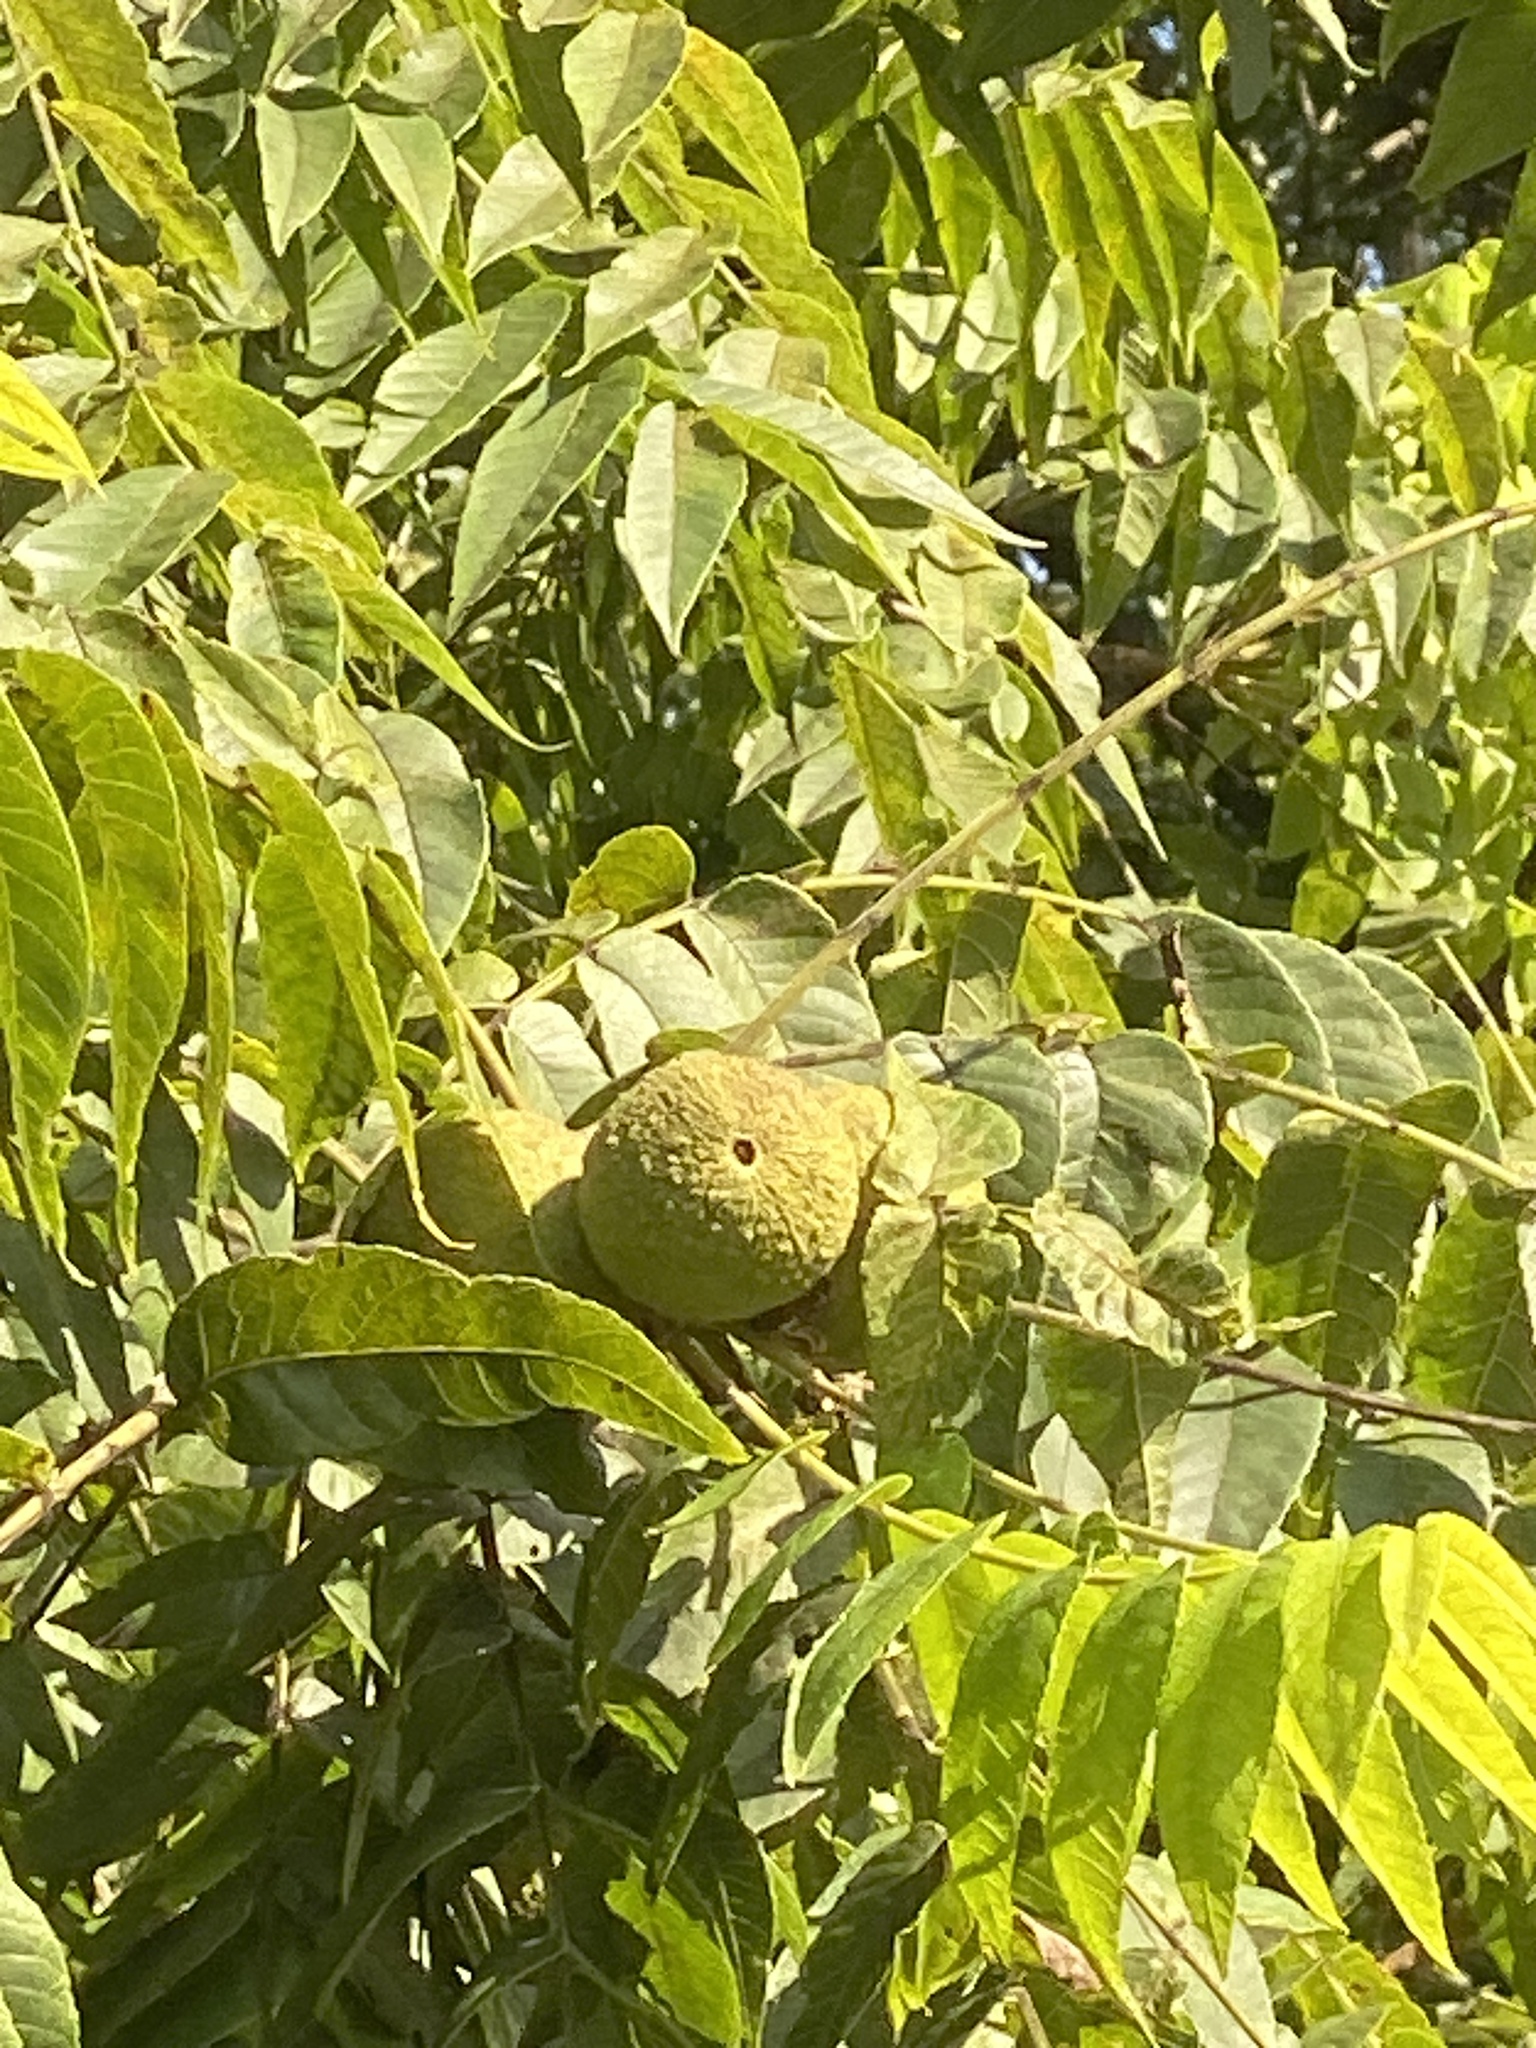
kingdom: Plantae
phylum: Tracheophyta
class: Magnoliopsida
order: Fagales
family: Juglandaceae
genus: Juglans
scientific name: Juglans nigra
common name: Black walnut
